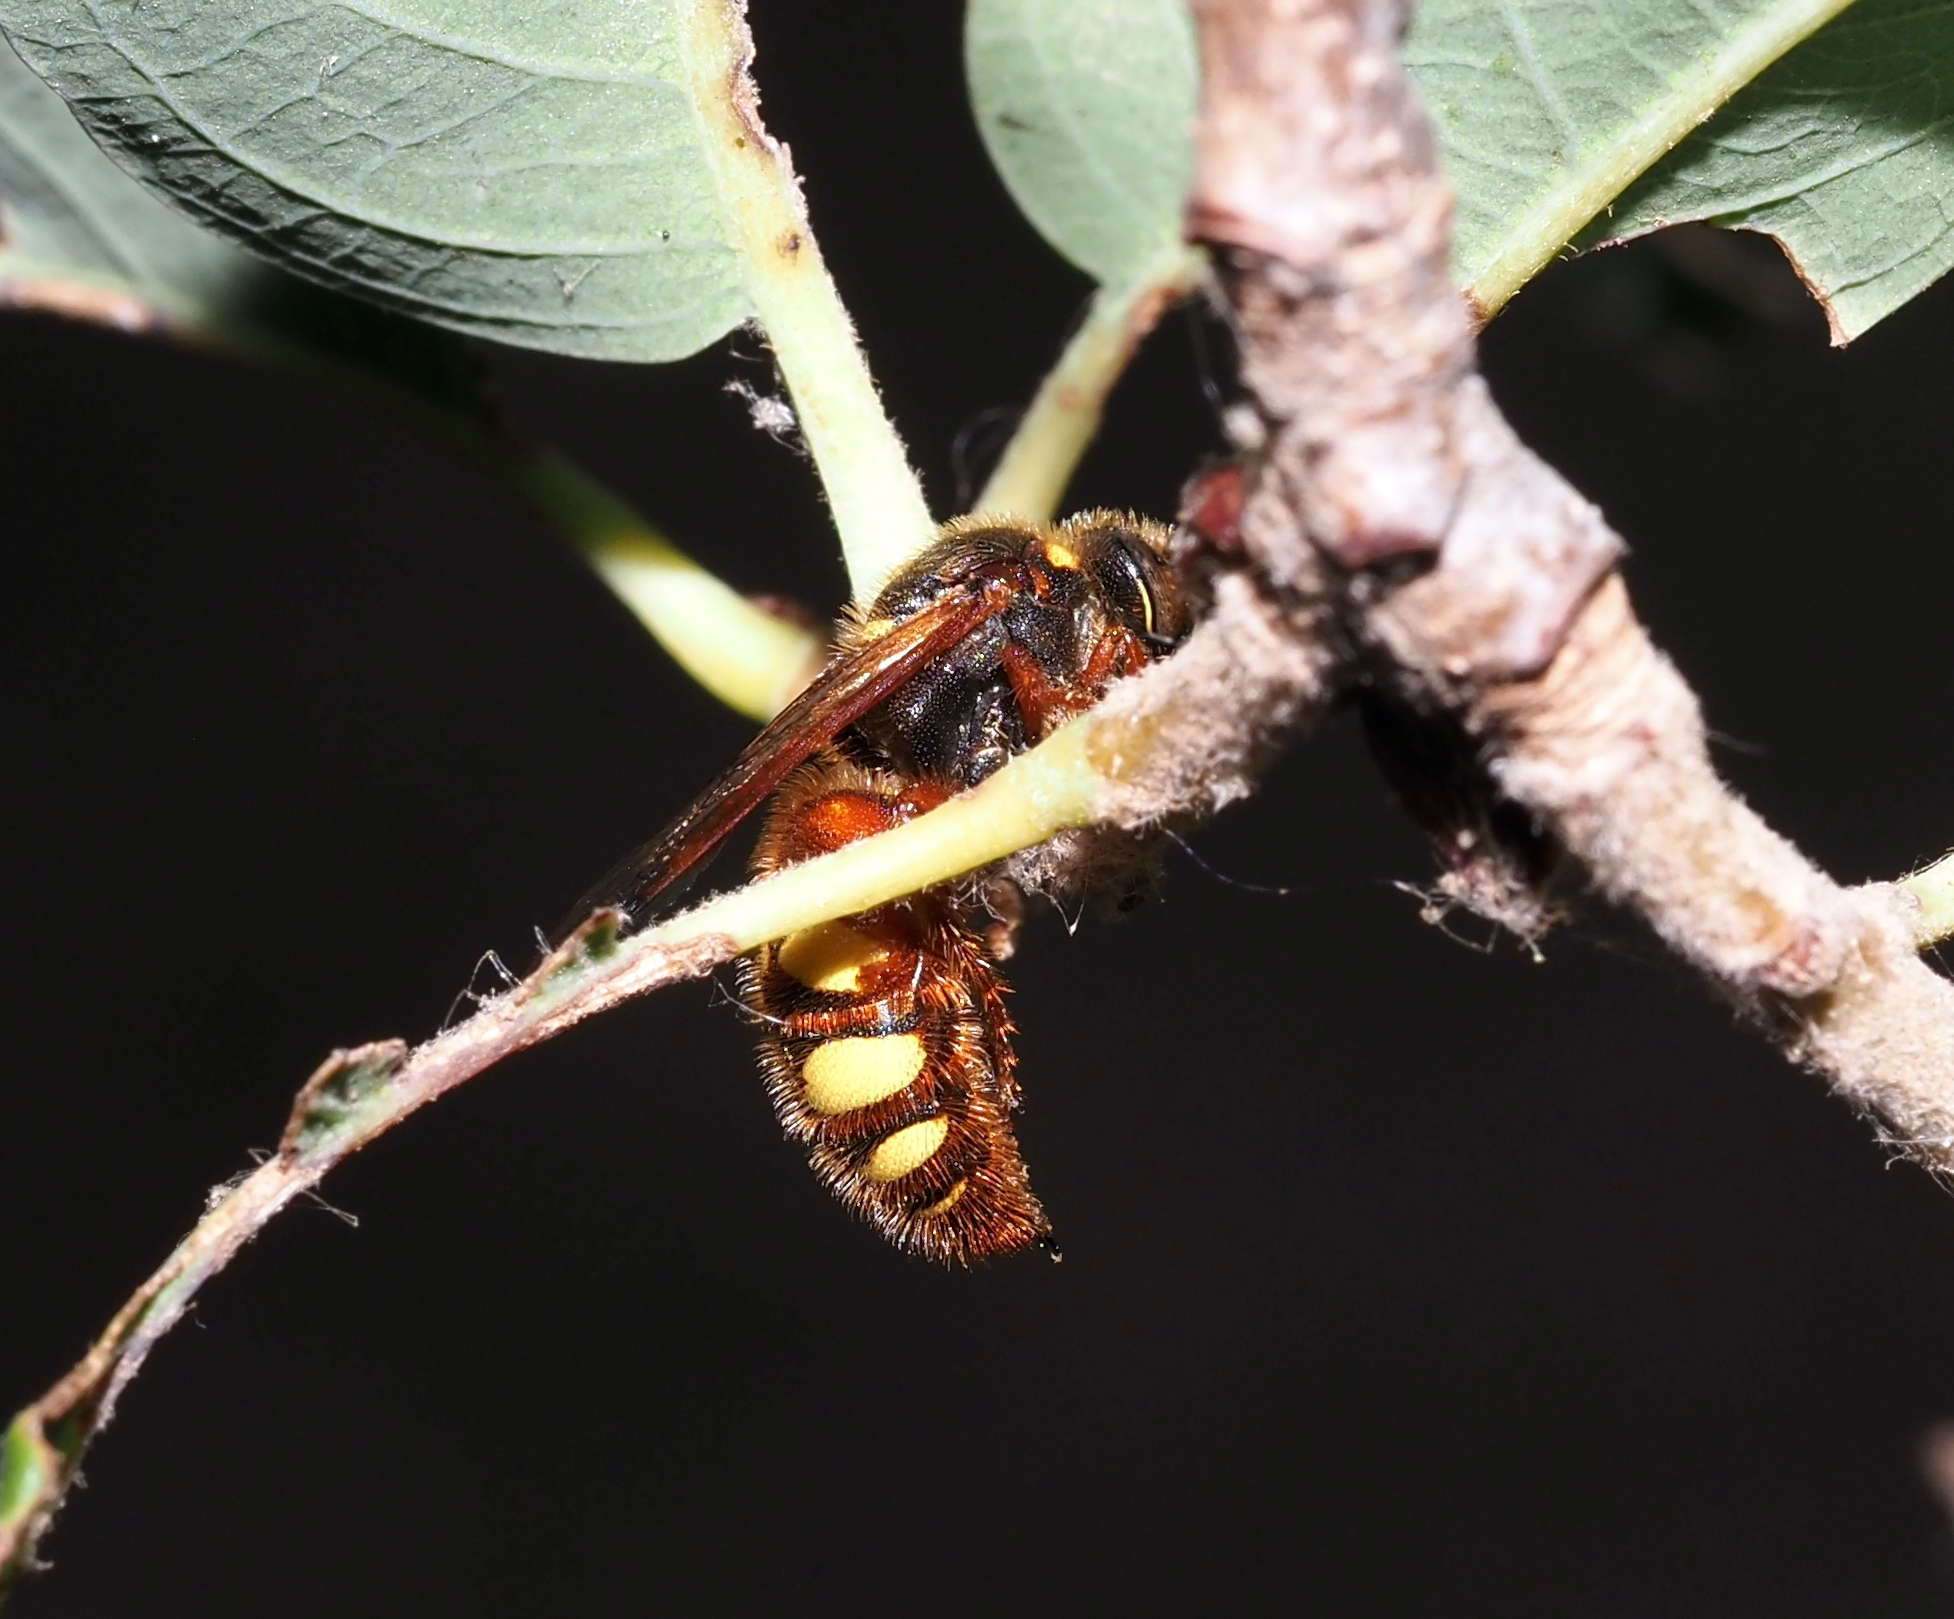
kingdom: Animalia
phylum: Arthropoda
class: Insecta
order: Hymenoptera
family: Scoliidae
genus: Scolia
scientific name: Scolia nobilitata
